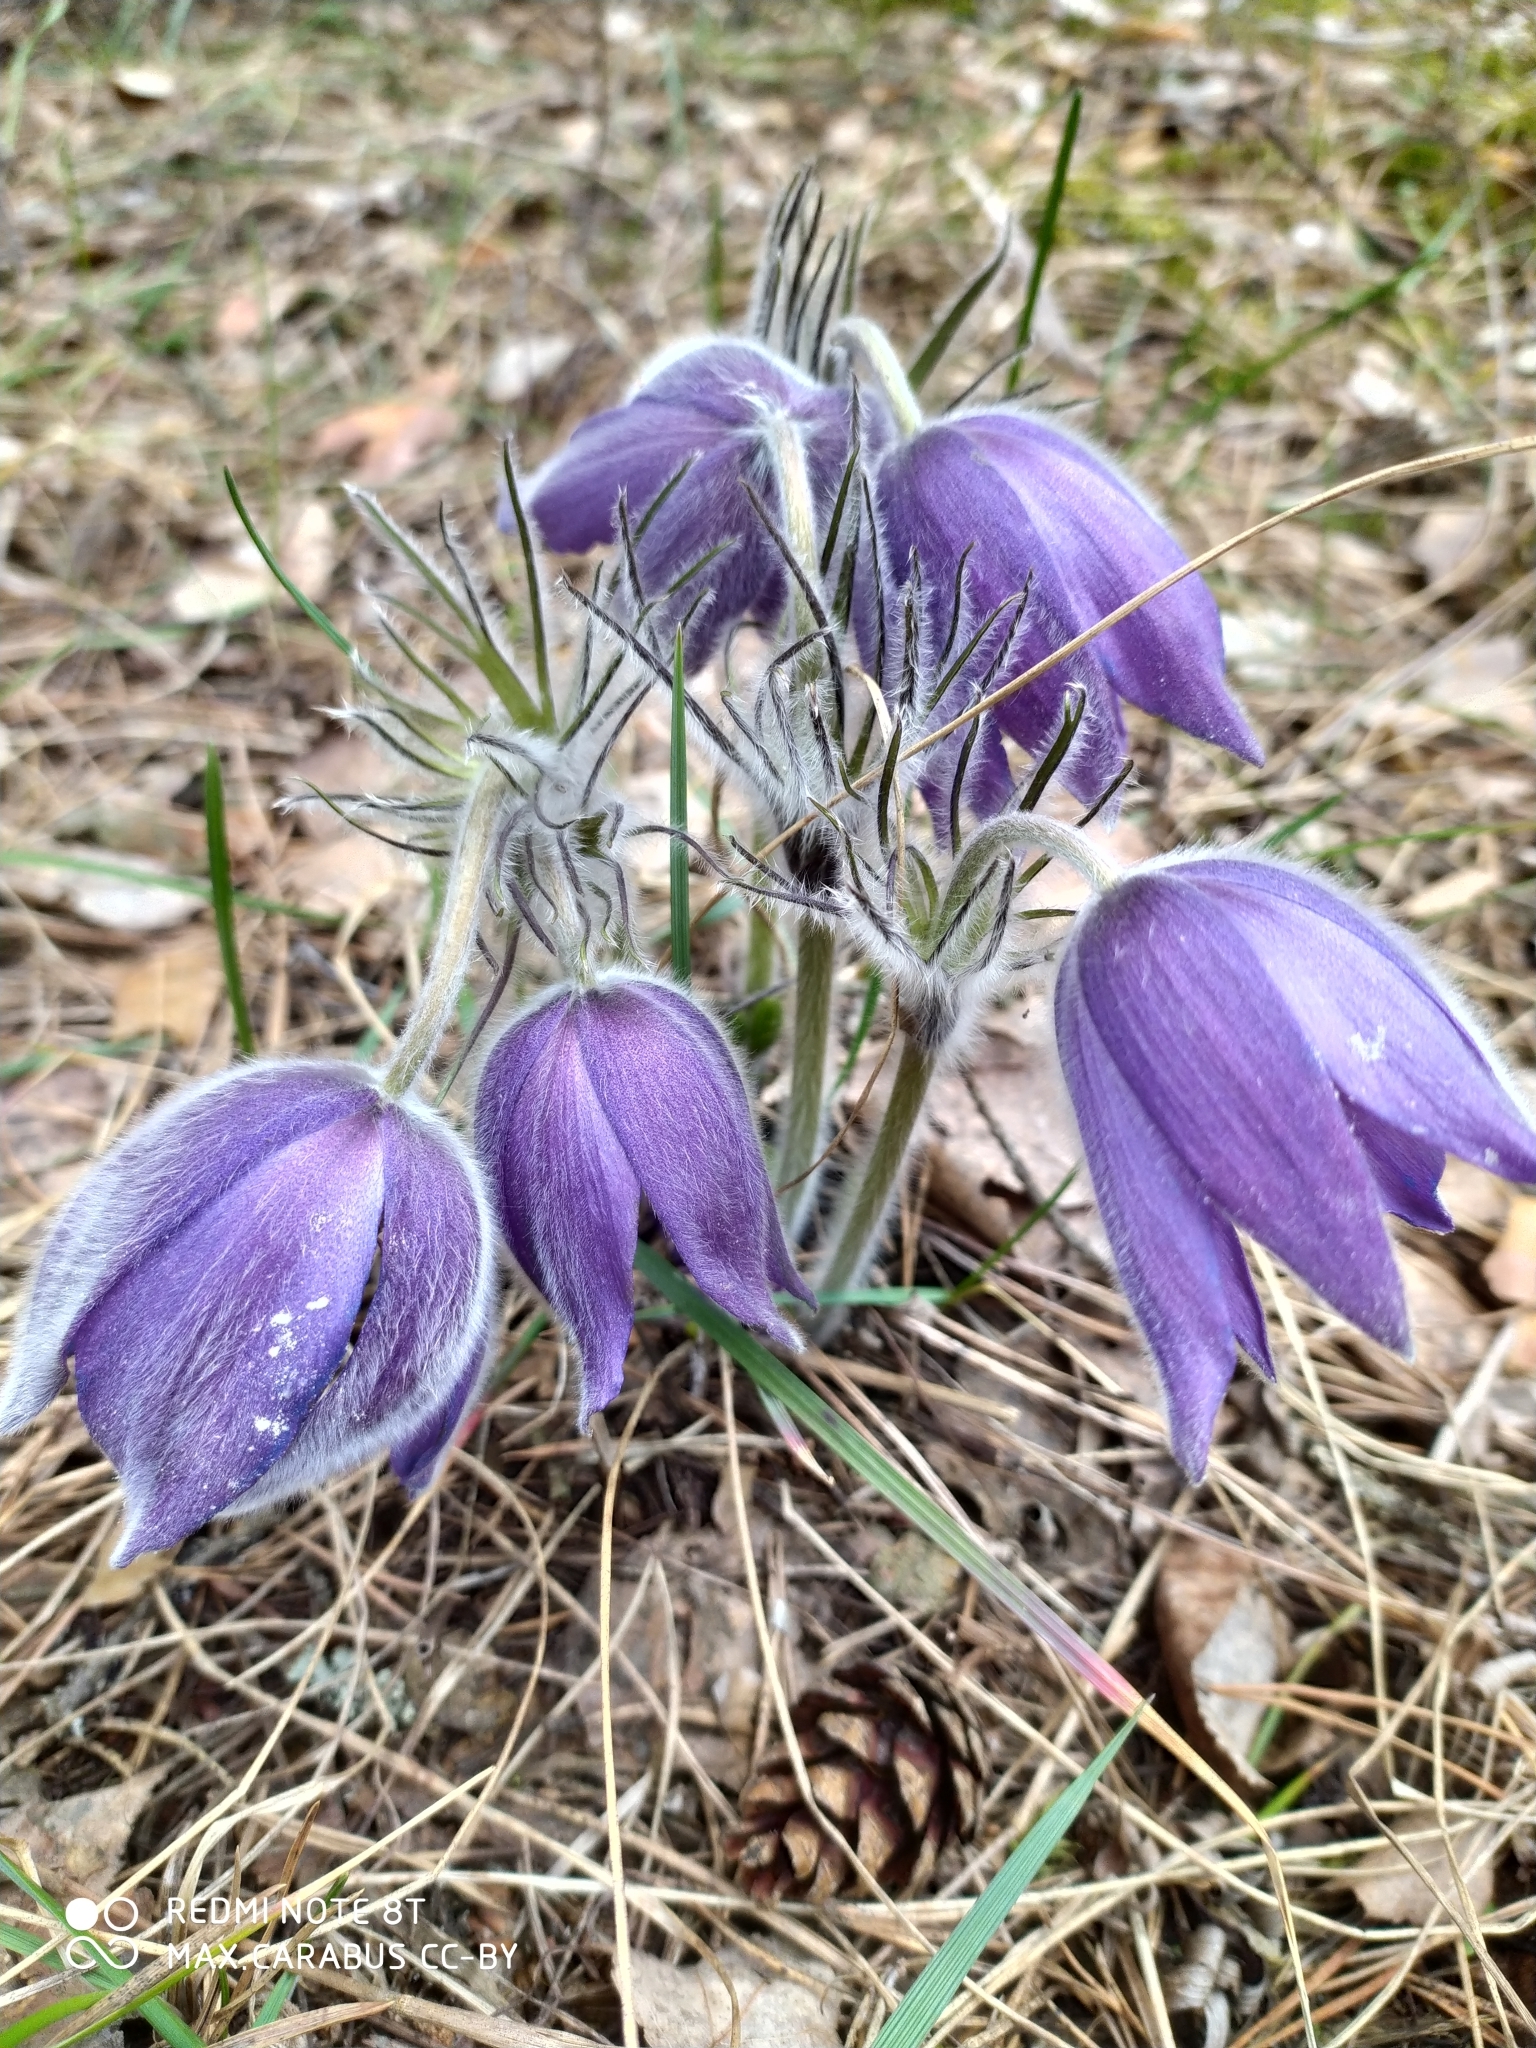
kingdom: Plantae
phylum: Tracheophyta
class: Magnoliopsida
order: Ranunculales
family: Ranunculaceae
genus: Pulsatilla
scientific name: Pulsatilla patens
